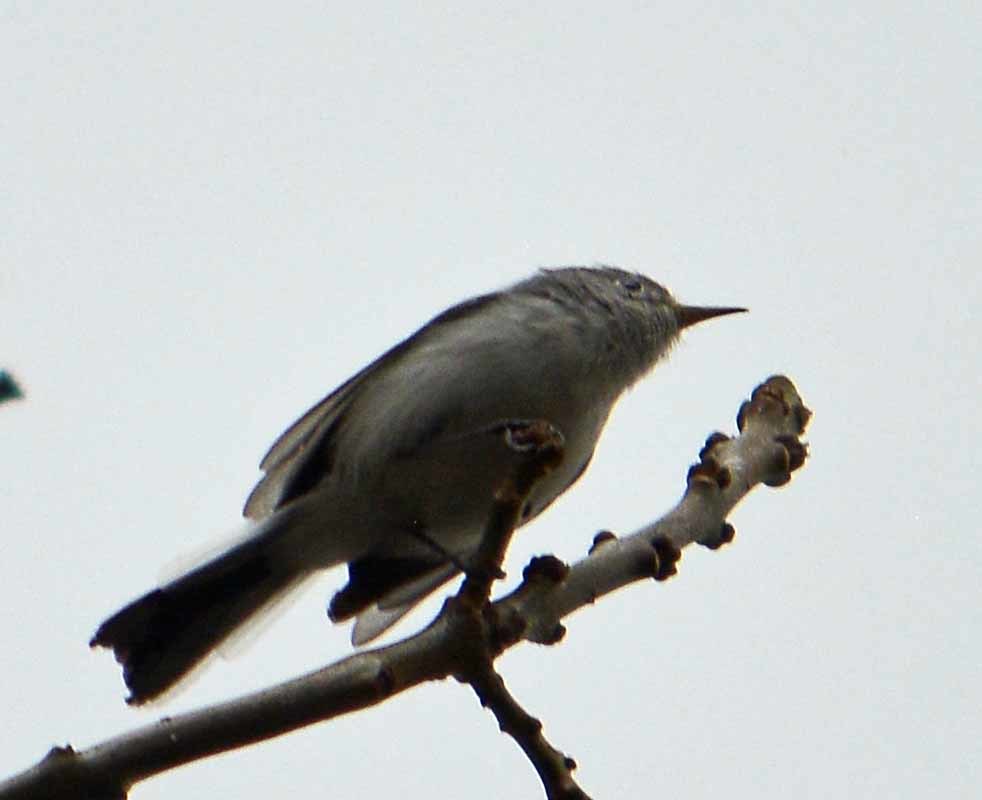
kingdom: Animalia
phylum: Chordata
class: Aves
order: Passeriformes
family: Polioptilidae
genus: Polioptila
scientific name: Polioptila caerulea
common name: Blue-gray gnatcatcher
